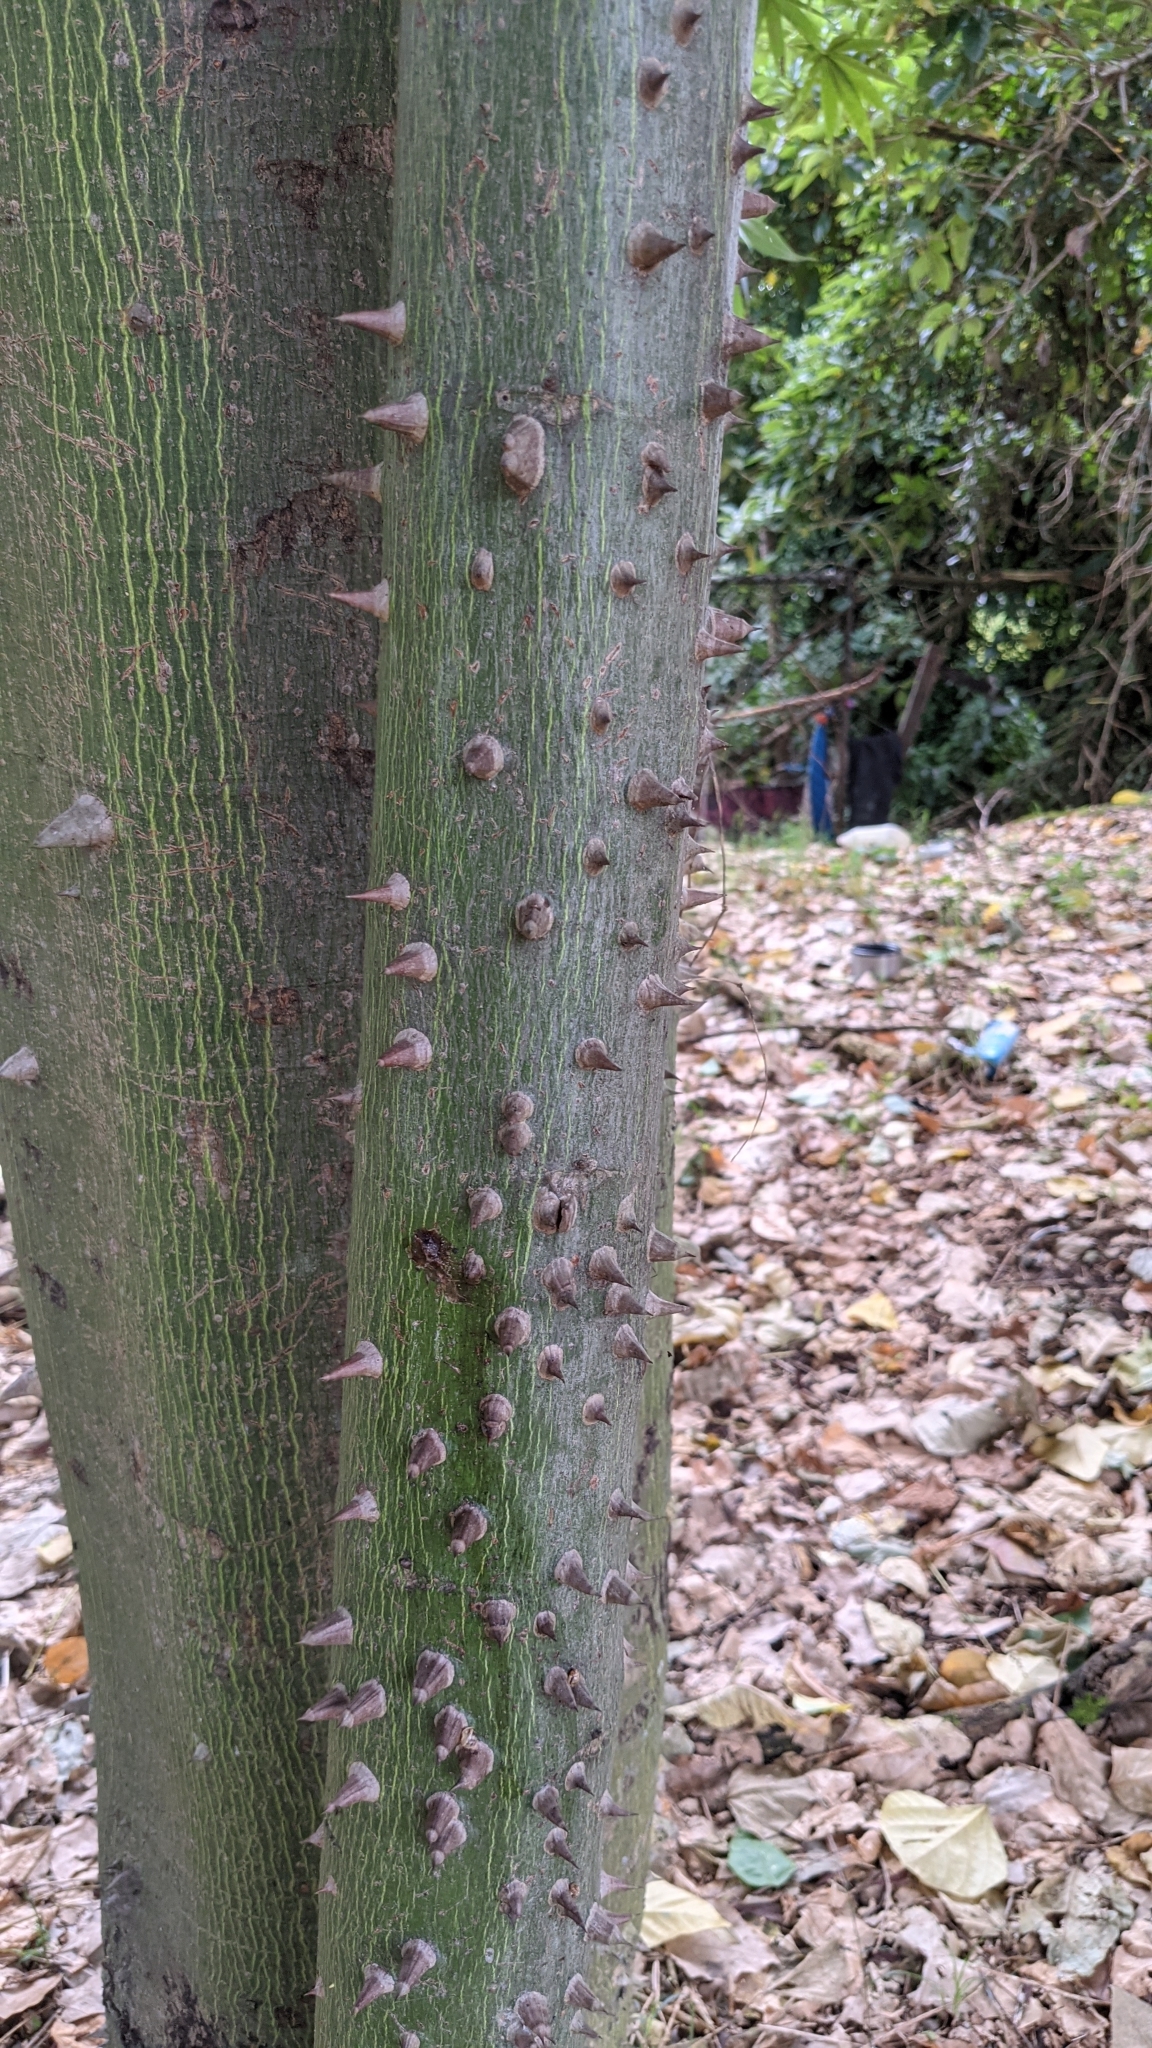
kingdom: Plantae
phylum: Tracheophyta
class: Magnoliopsida
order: Malvales
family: Malvaceae
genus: Ceiba
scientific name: Ceiba pentandra
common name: Kapok
